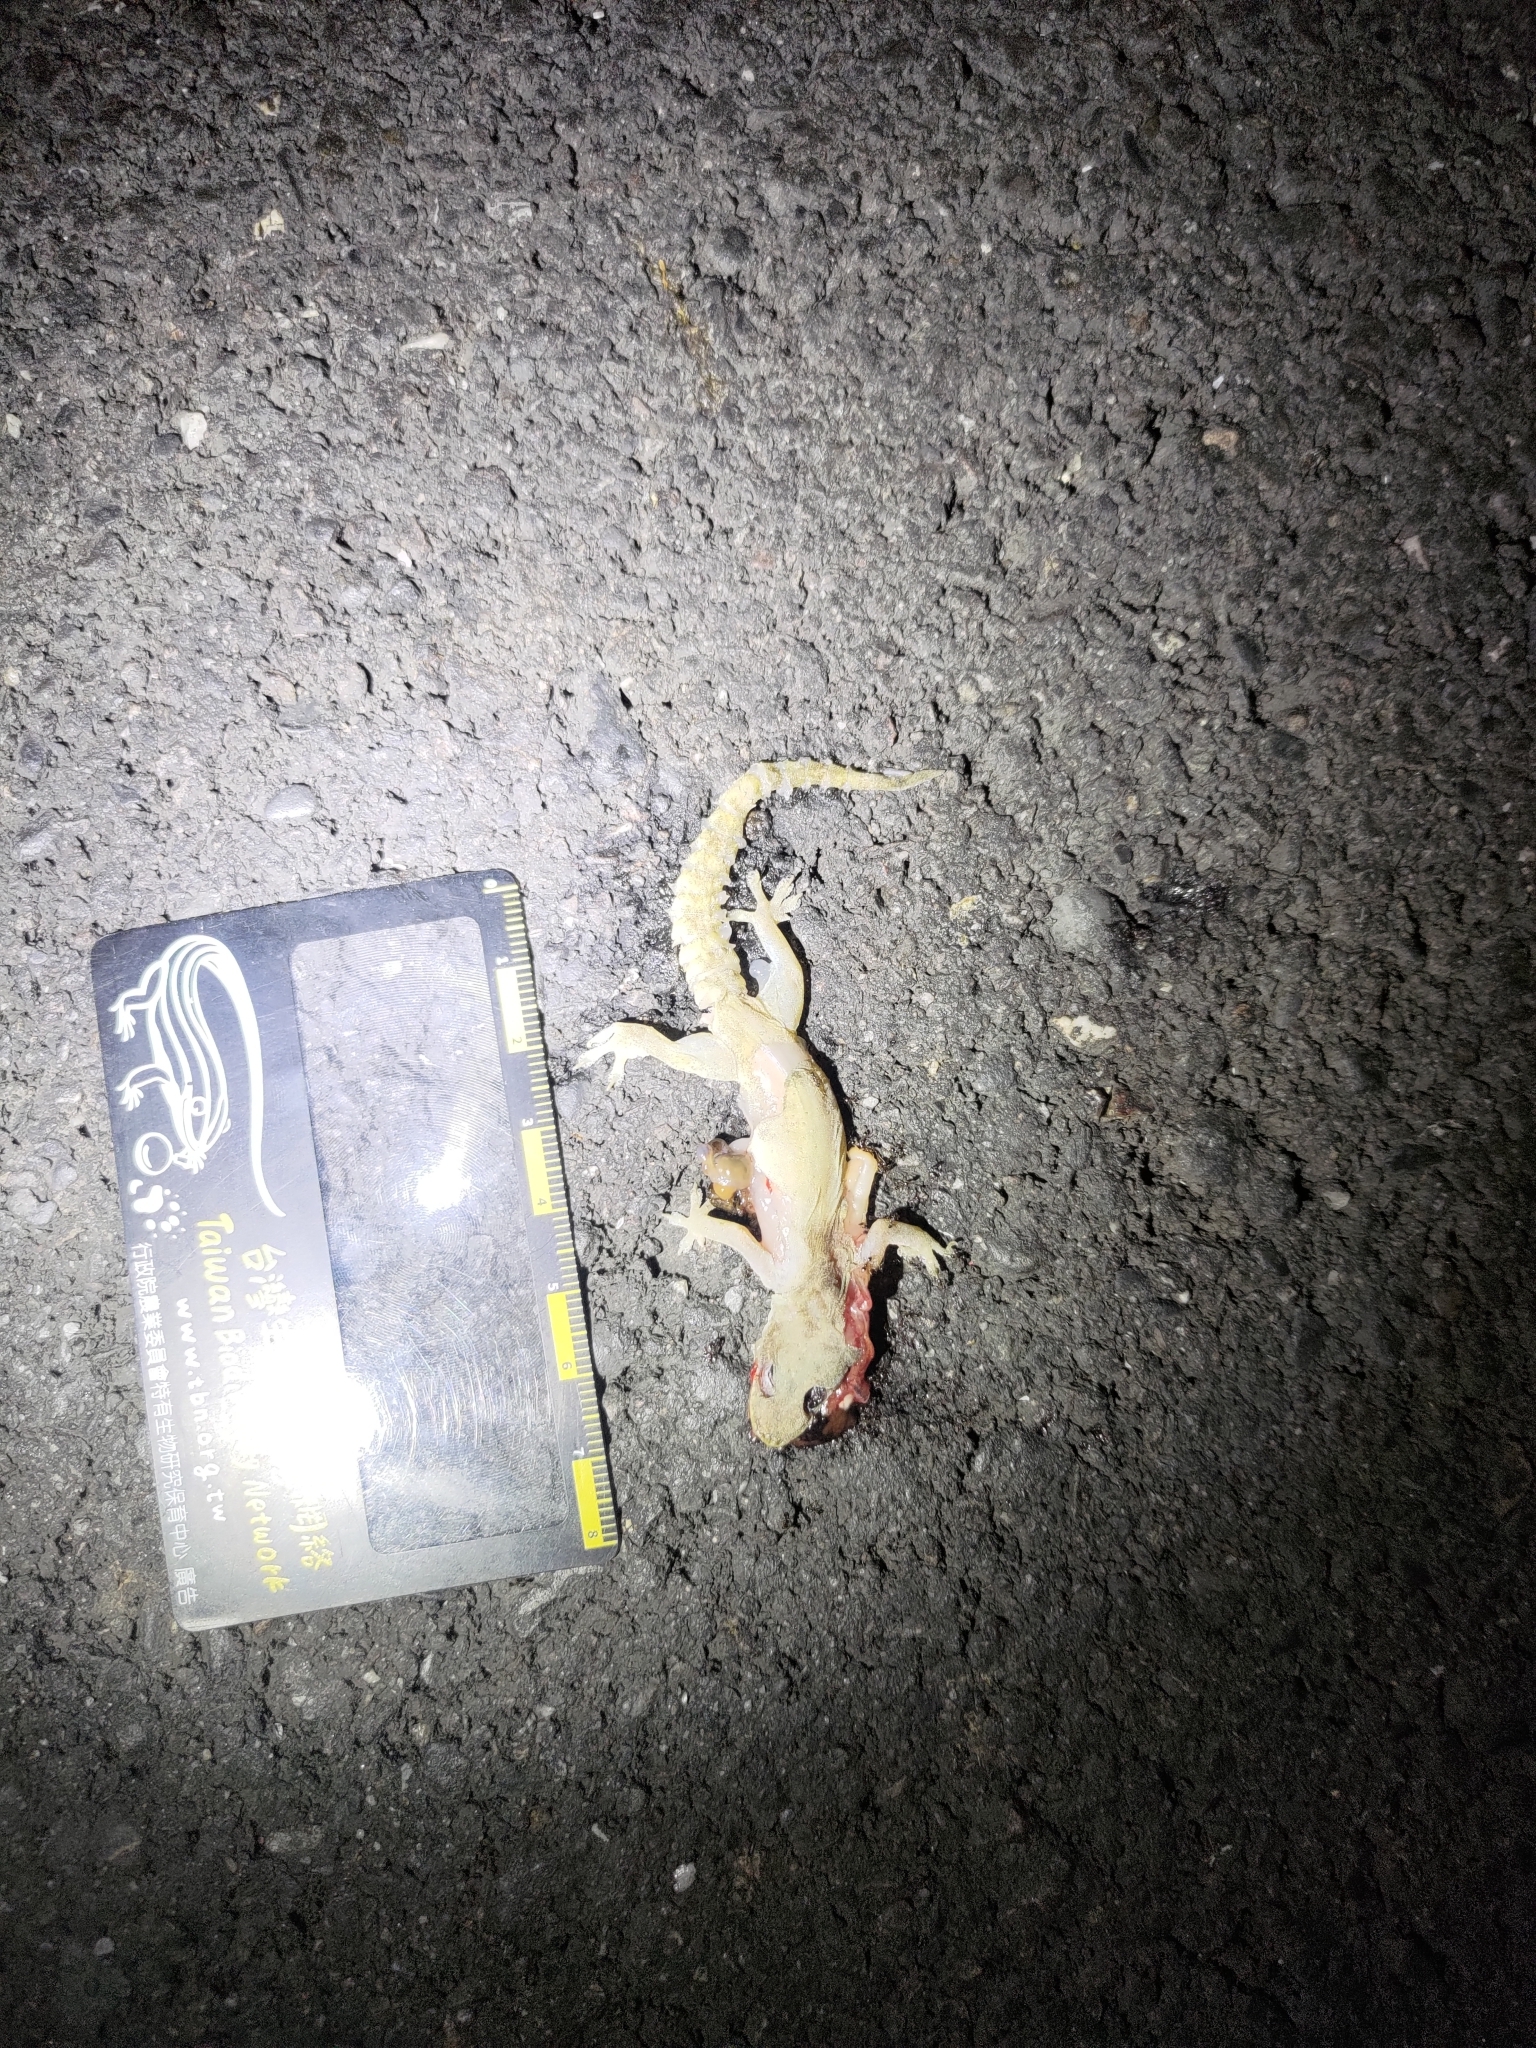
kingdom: Animalia
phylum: Chordata
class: Squamata
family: Gekkonidae
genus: Hemidactylus
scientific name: Hemidactylus frenatus
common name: Common house gecko
